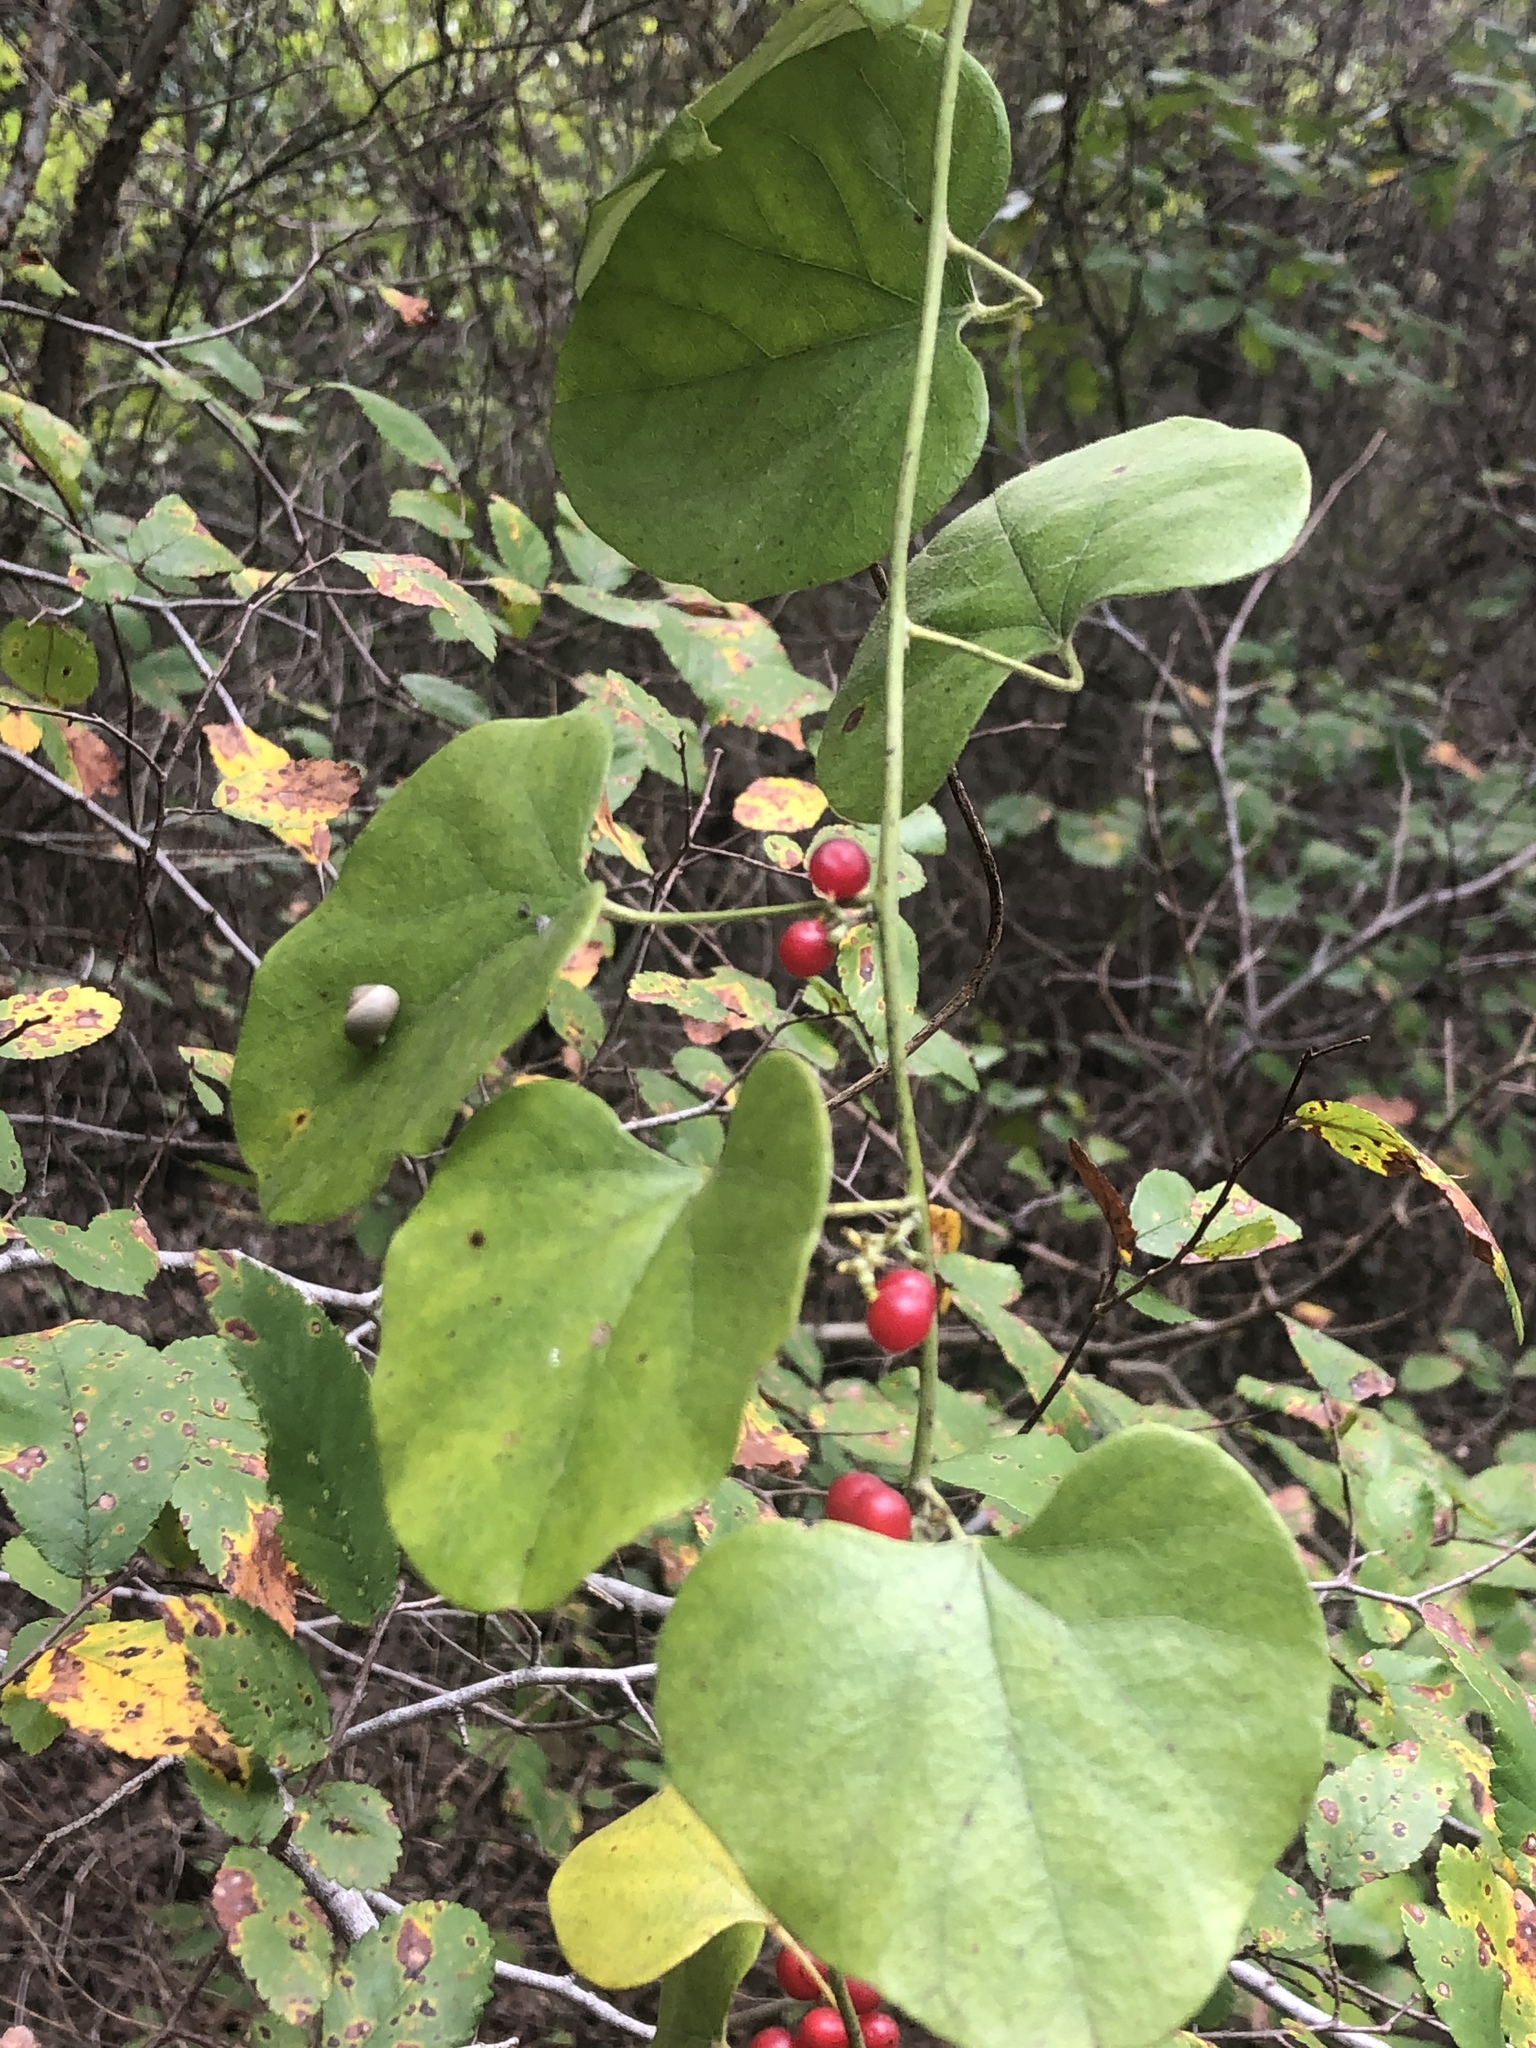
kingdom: Plantae
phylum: Tracheophyta
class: Magnoliopsida
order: Ranunculales
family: Menispermaceae
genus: Cocculus
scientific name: Cocculus carolinus
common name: Carolina moonseed
